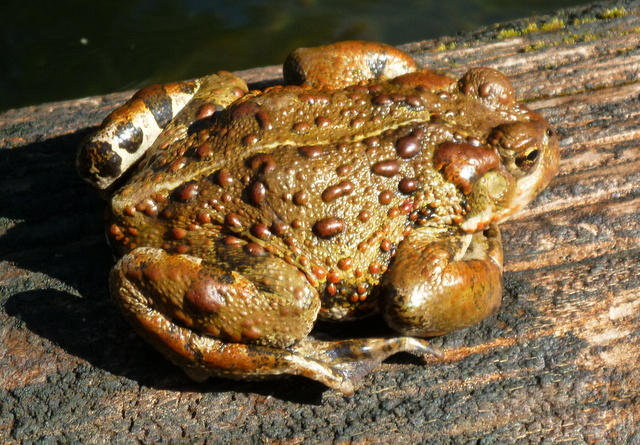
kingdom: Animalia
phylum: Chordata
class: Amphibia
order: Anura
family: Bufonidae
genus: Anaxyrus
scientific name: Anaxyrus boreas
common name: Western toad
